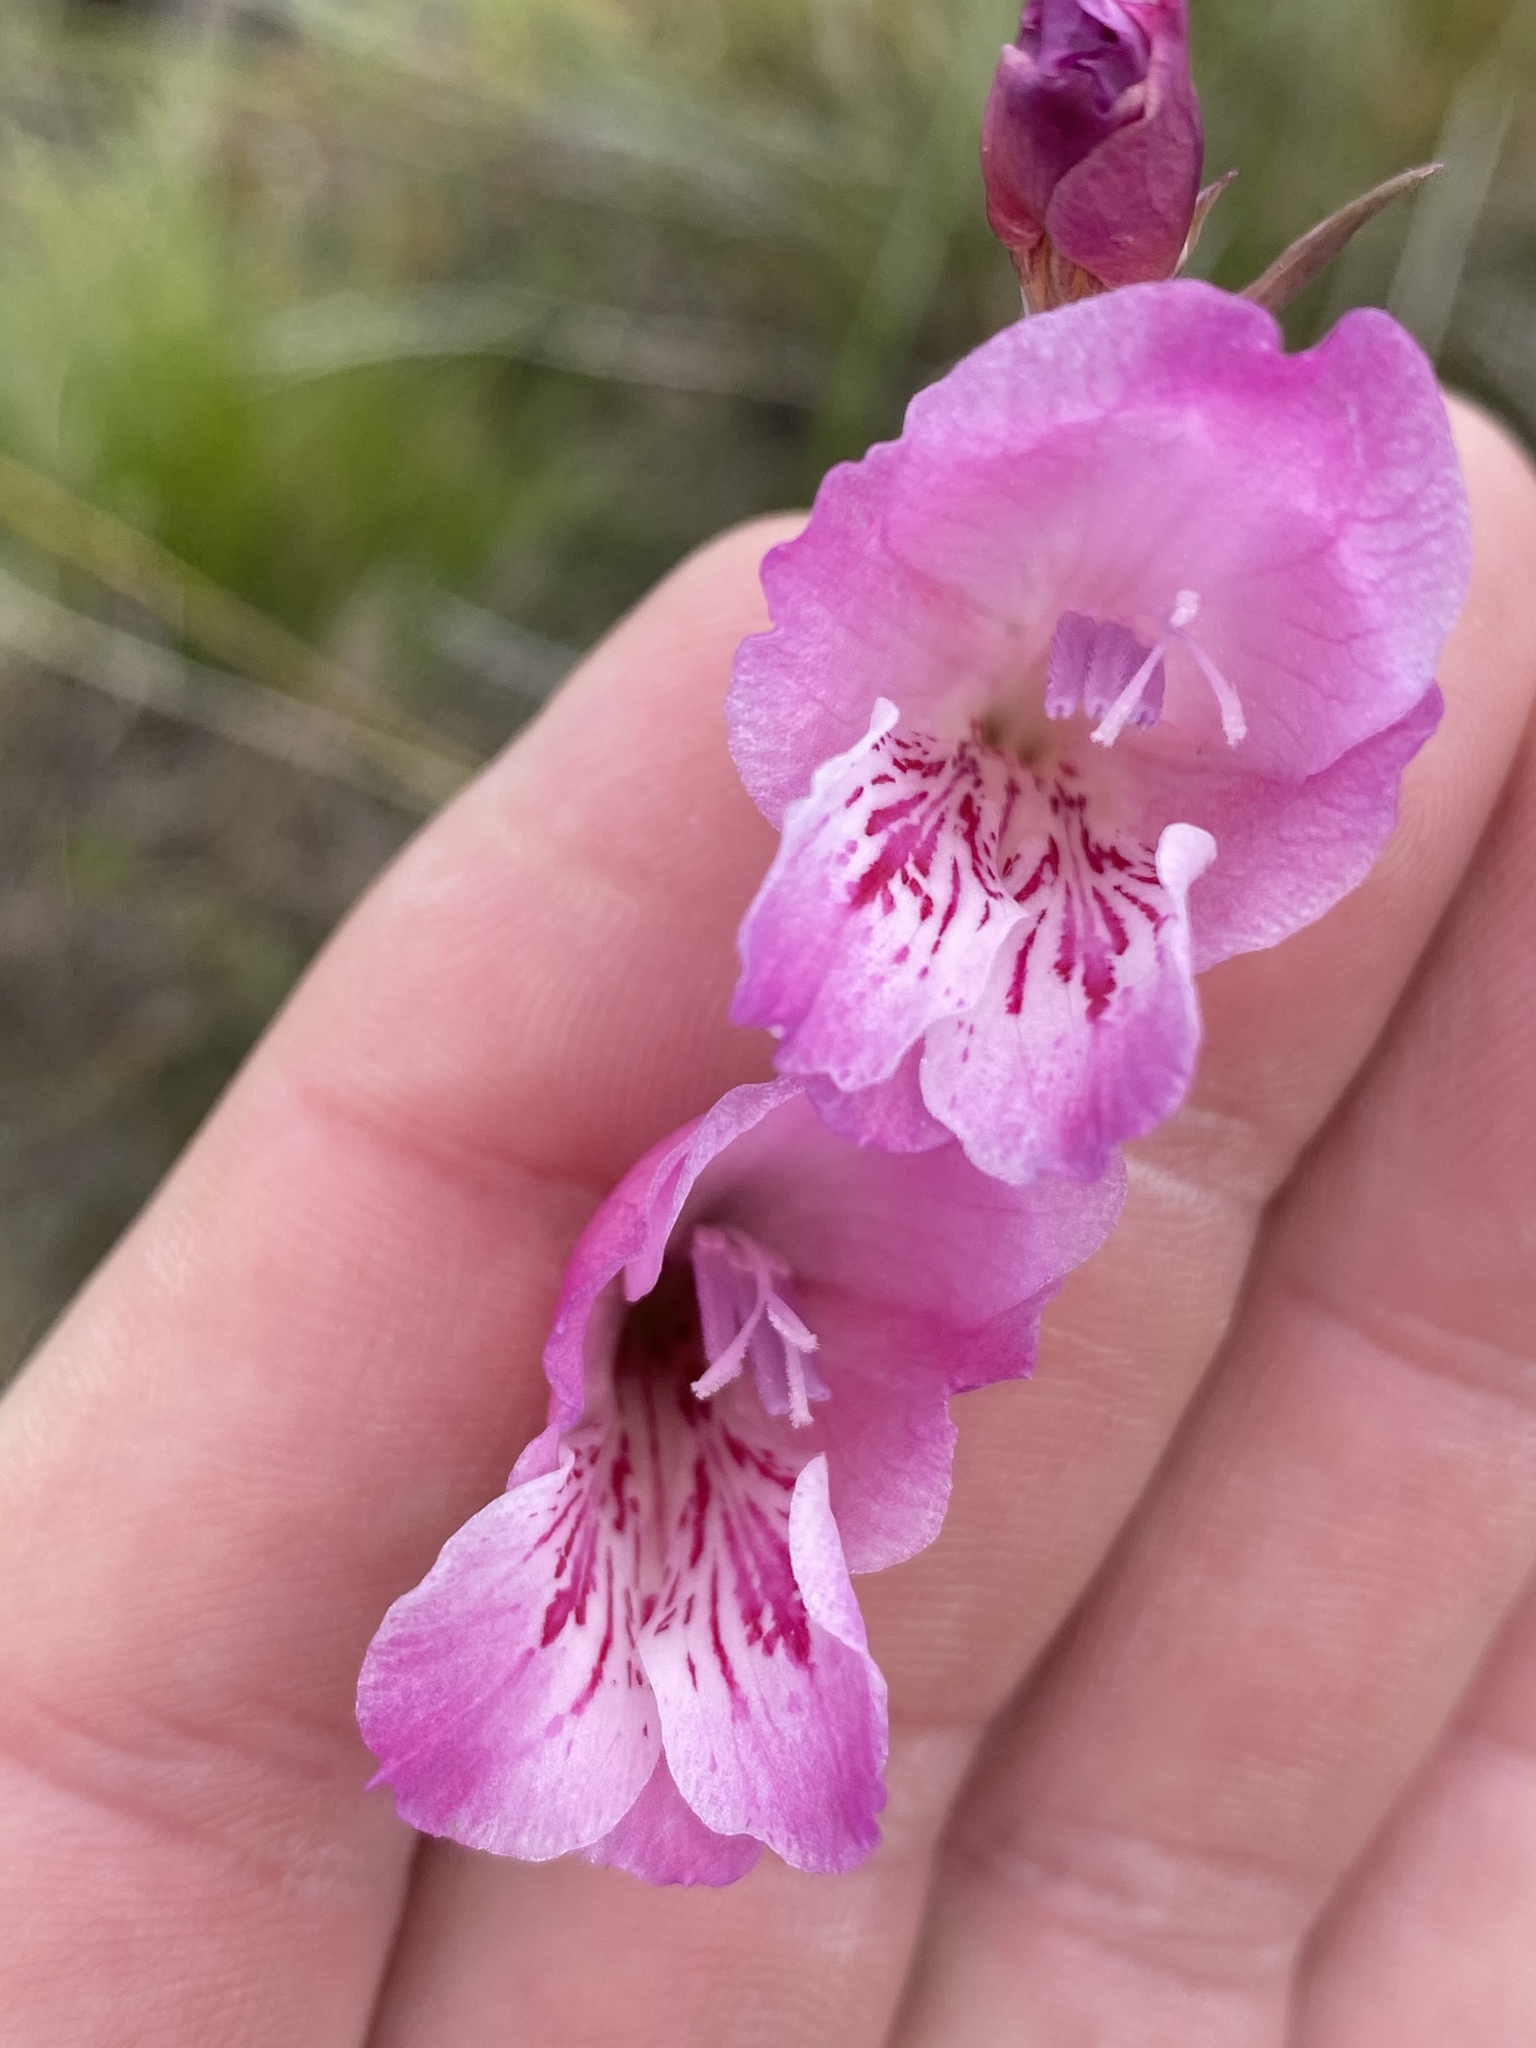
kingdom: Plantae
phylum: Tracheophyta
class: Liliopsida
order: Asparagales
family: Iridaceae
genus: Gladiolus
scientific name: Gladiolus hirsutus
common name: Small pink afrikaner
